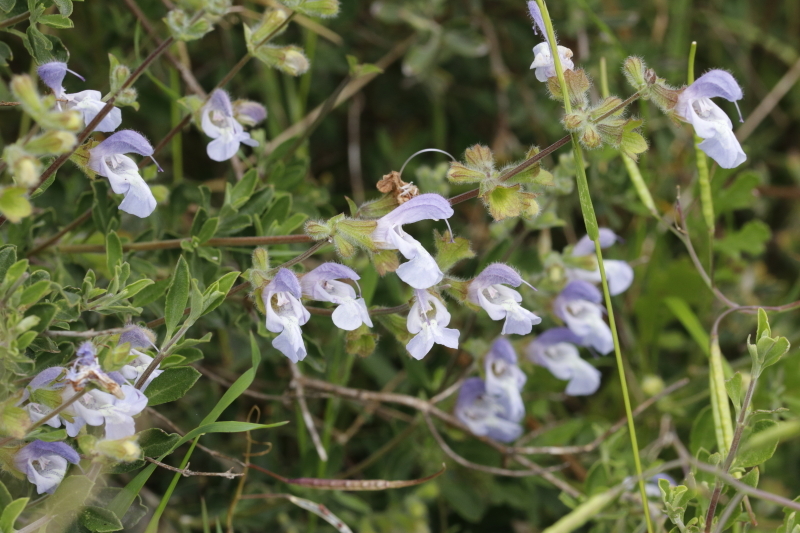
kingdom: Plantae
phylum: Tracheophyta
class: Magnoliopsida
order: Lamiales
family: Lamiaceae
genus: Salvia
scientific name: Salvia africana
